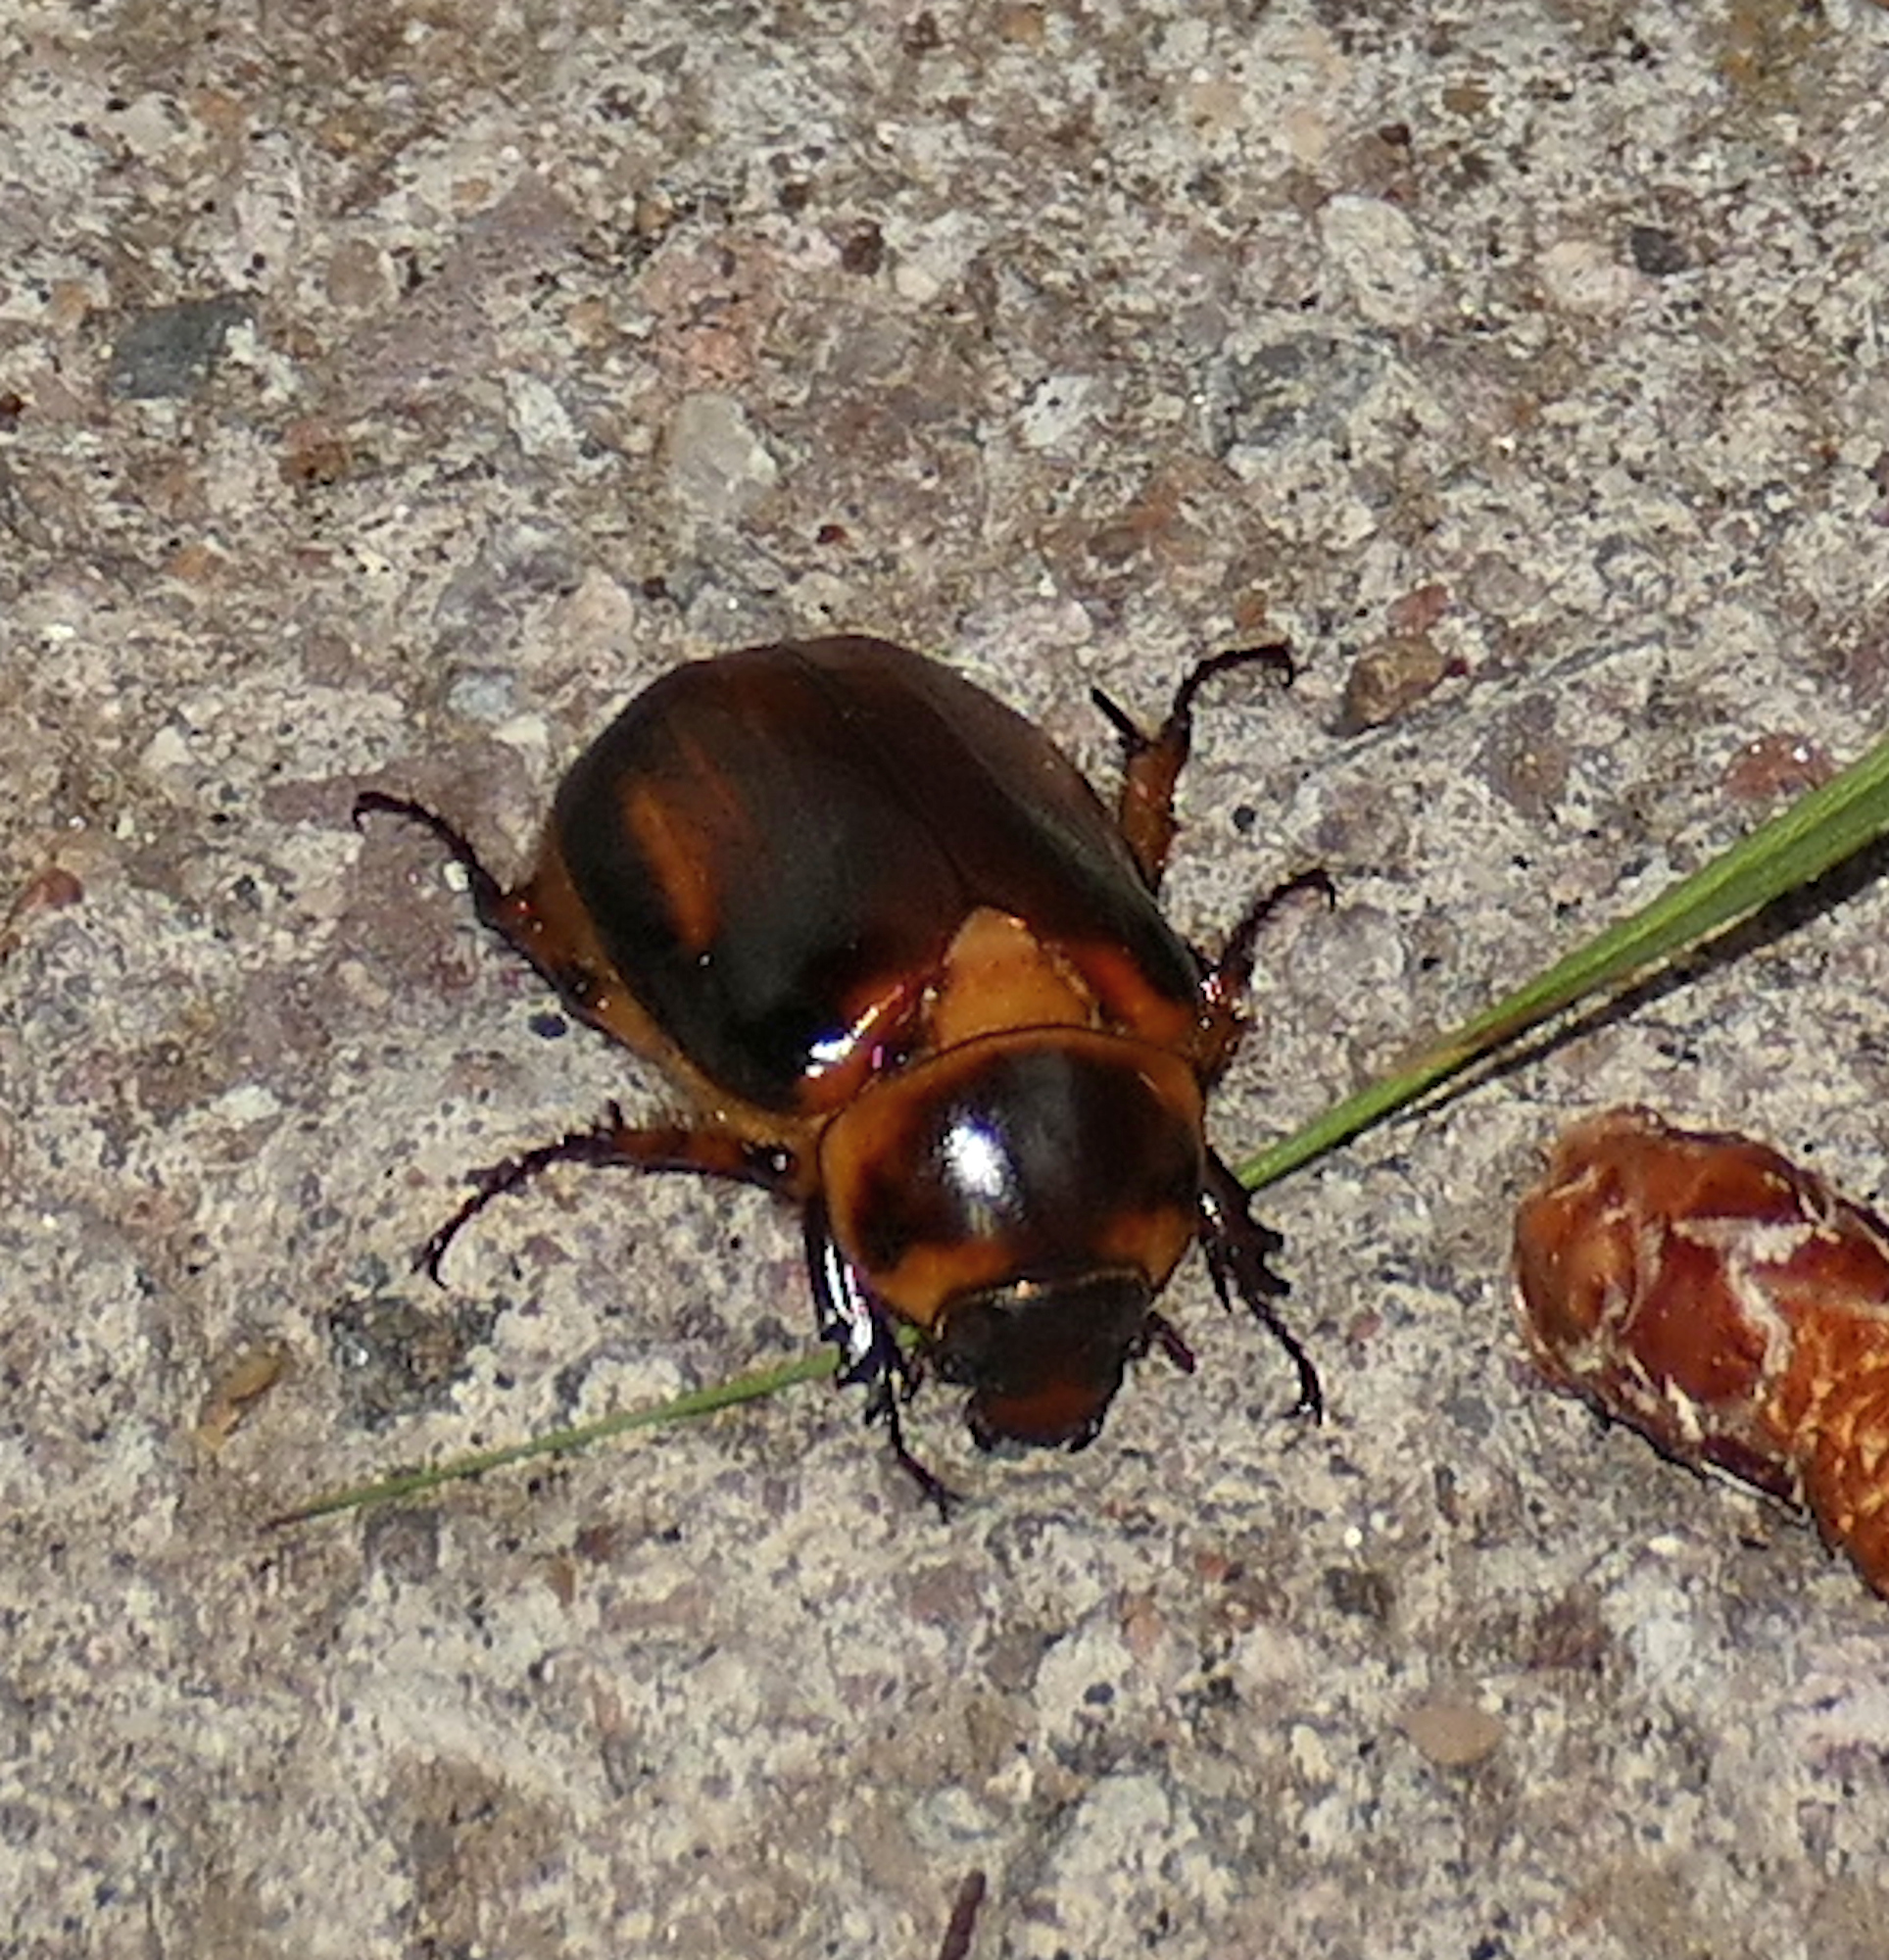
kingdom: Animalia
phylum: Arthropoda
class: Insecta
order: Coleoptera
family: Scarabaeidae
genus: Ancognatha
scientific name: Ancognatha manca
